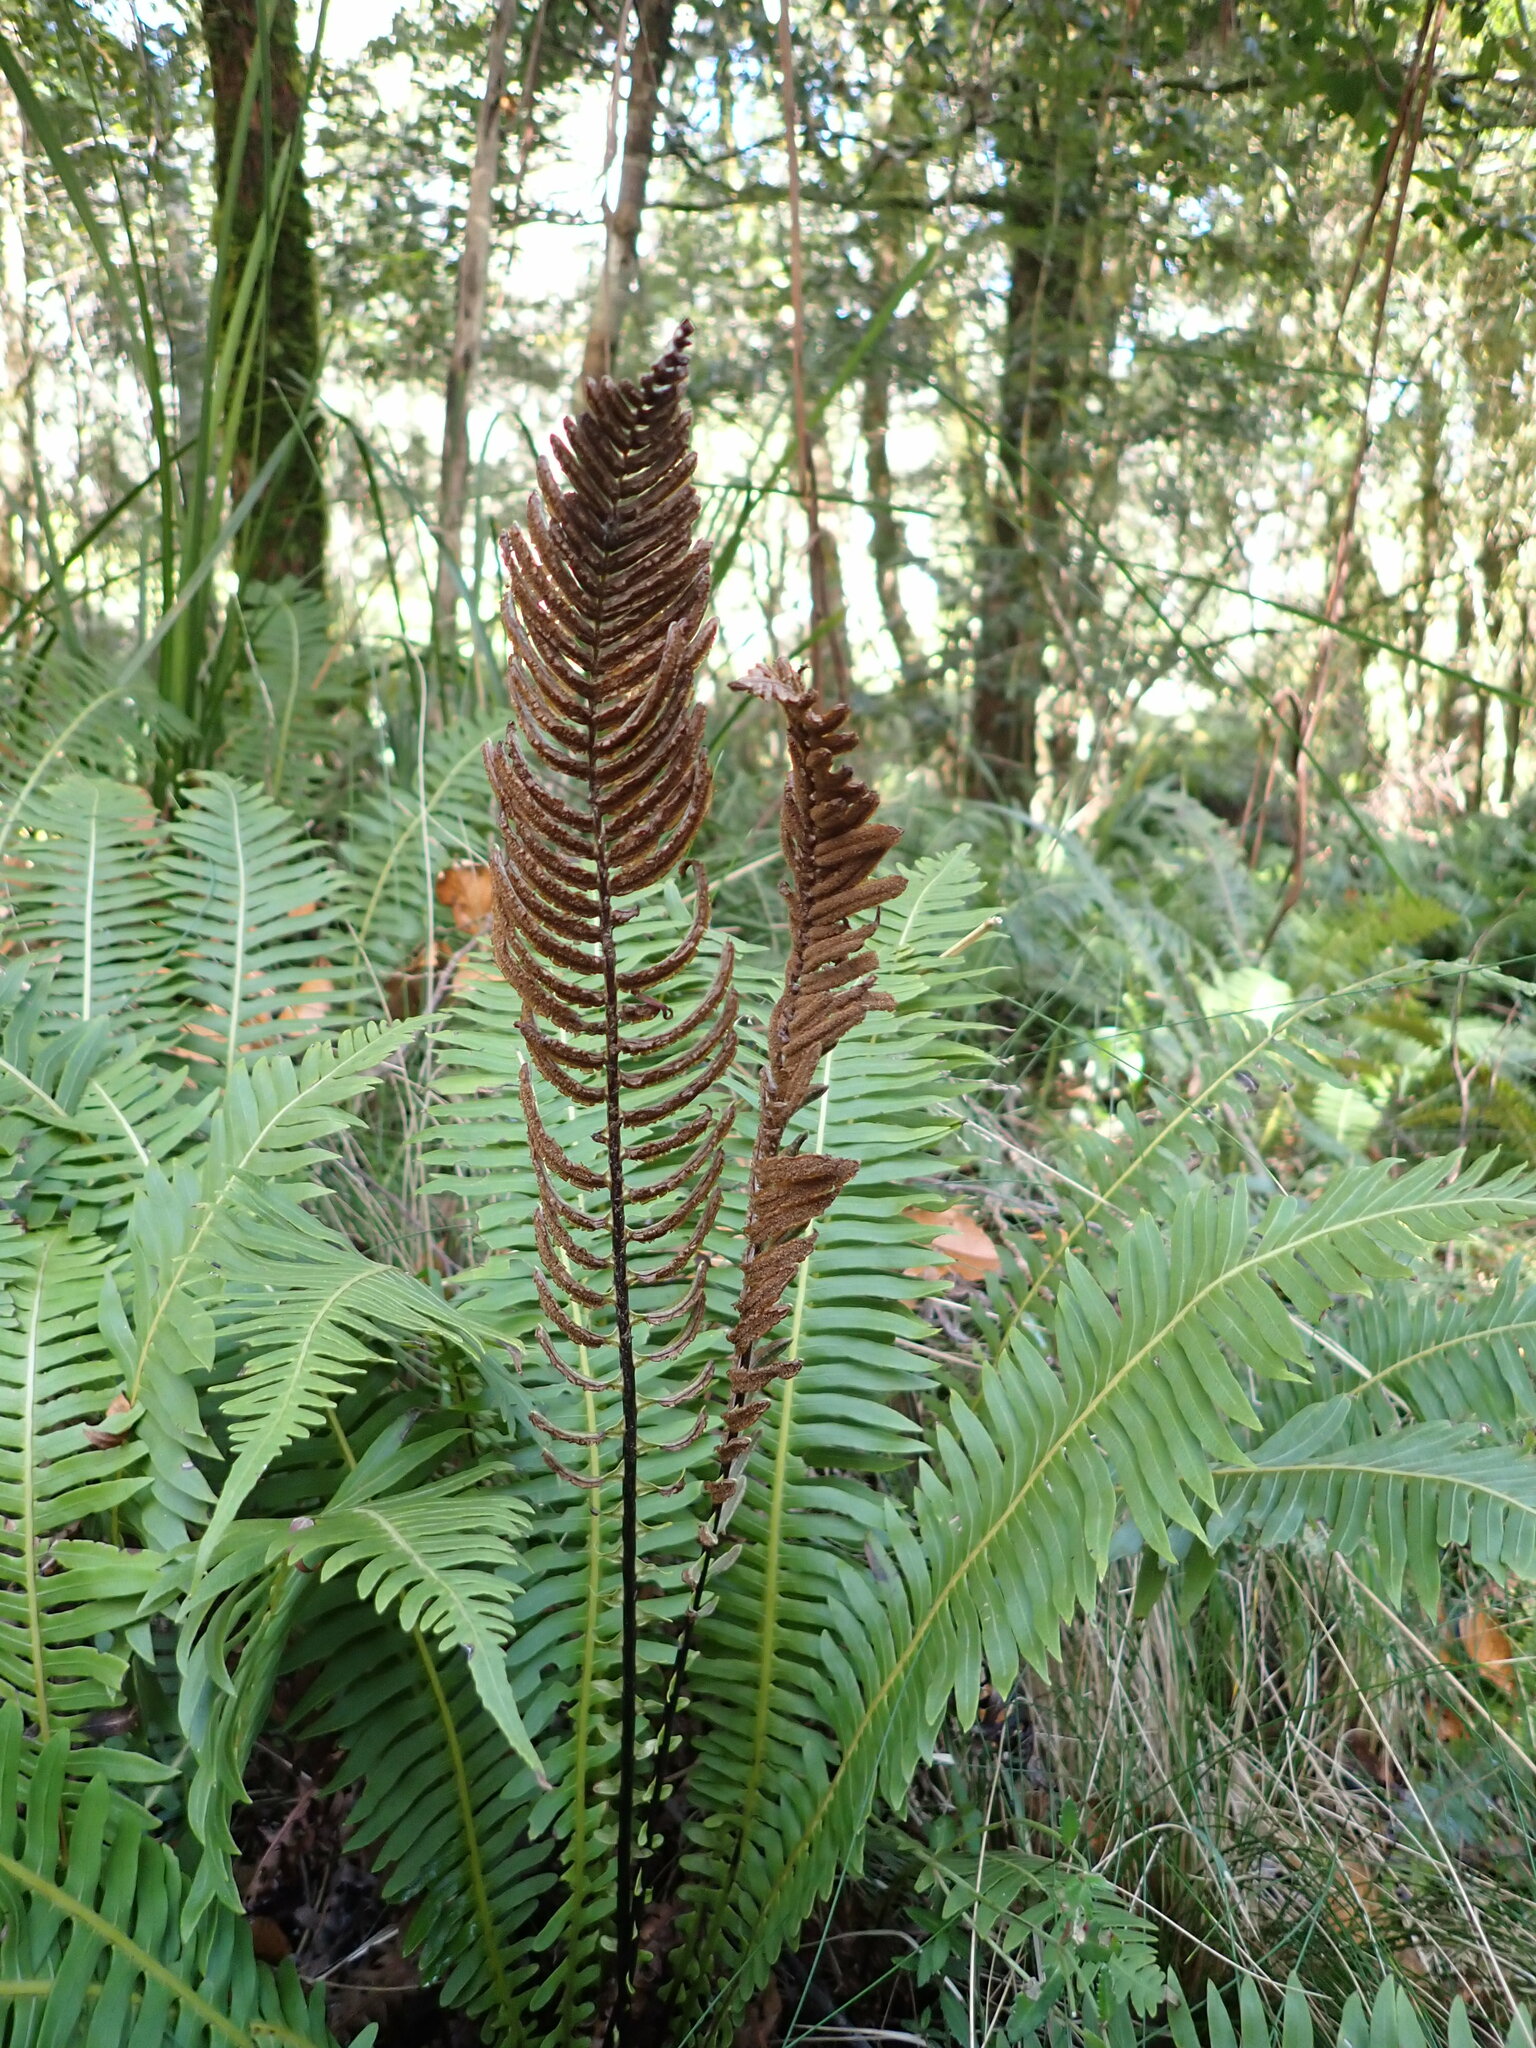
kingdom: Plantae
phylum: Tracheophyta
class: Polypodiopsida
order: Polypodiales
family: Blechnaceae
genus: Lomaria
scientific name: Lomaria nuda
